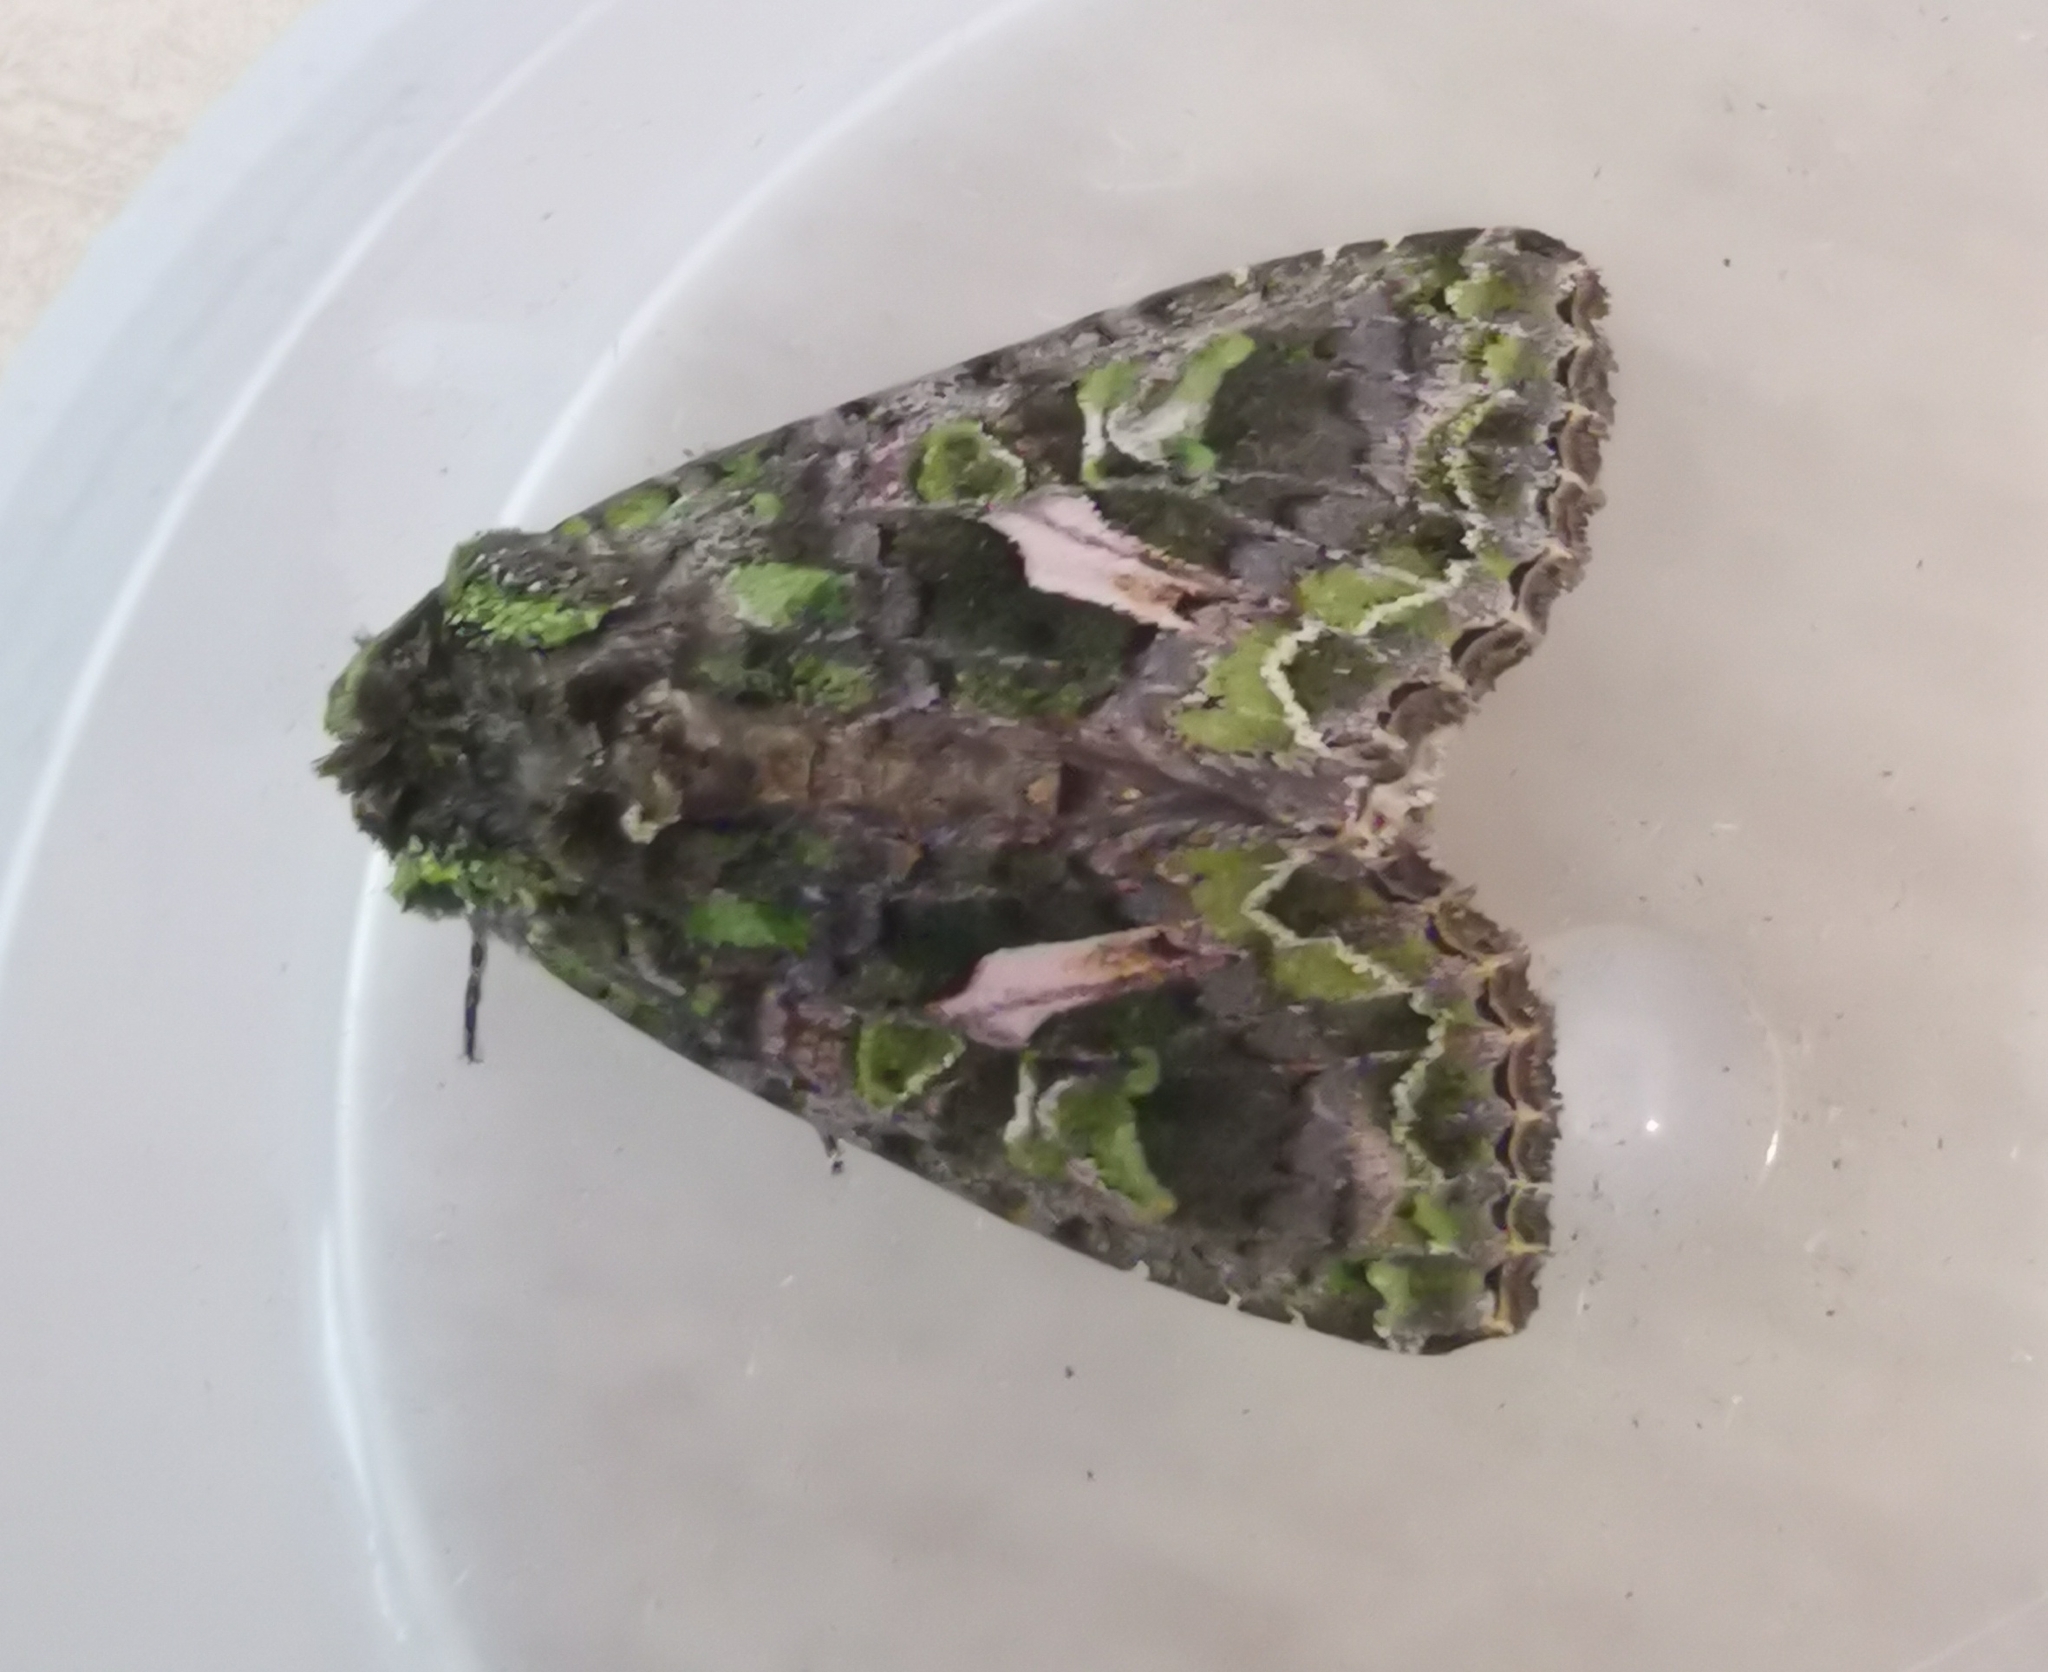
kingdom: Animalia
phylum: Arthropoda
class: Insecta
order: Lepidoptera
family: Noctuidae
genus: Trachea
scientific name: Trachea atriplicis
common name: Orache moth
